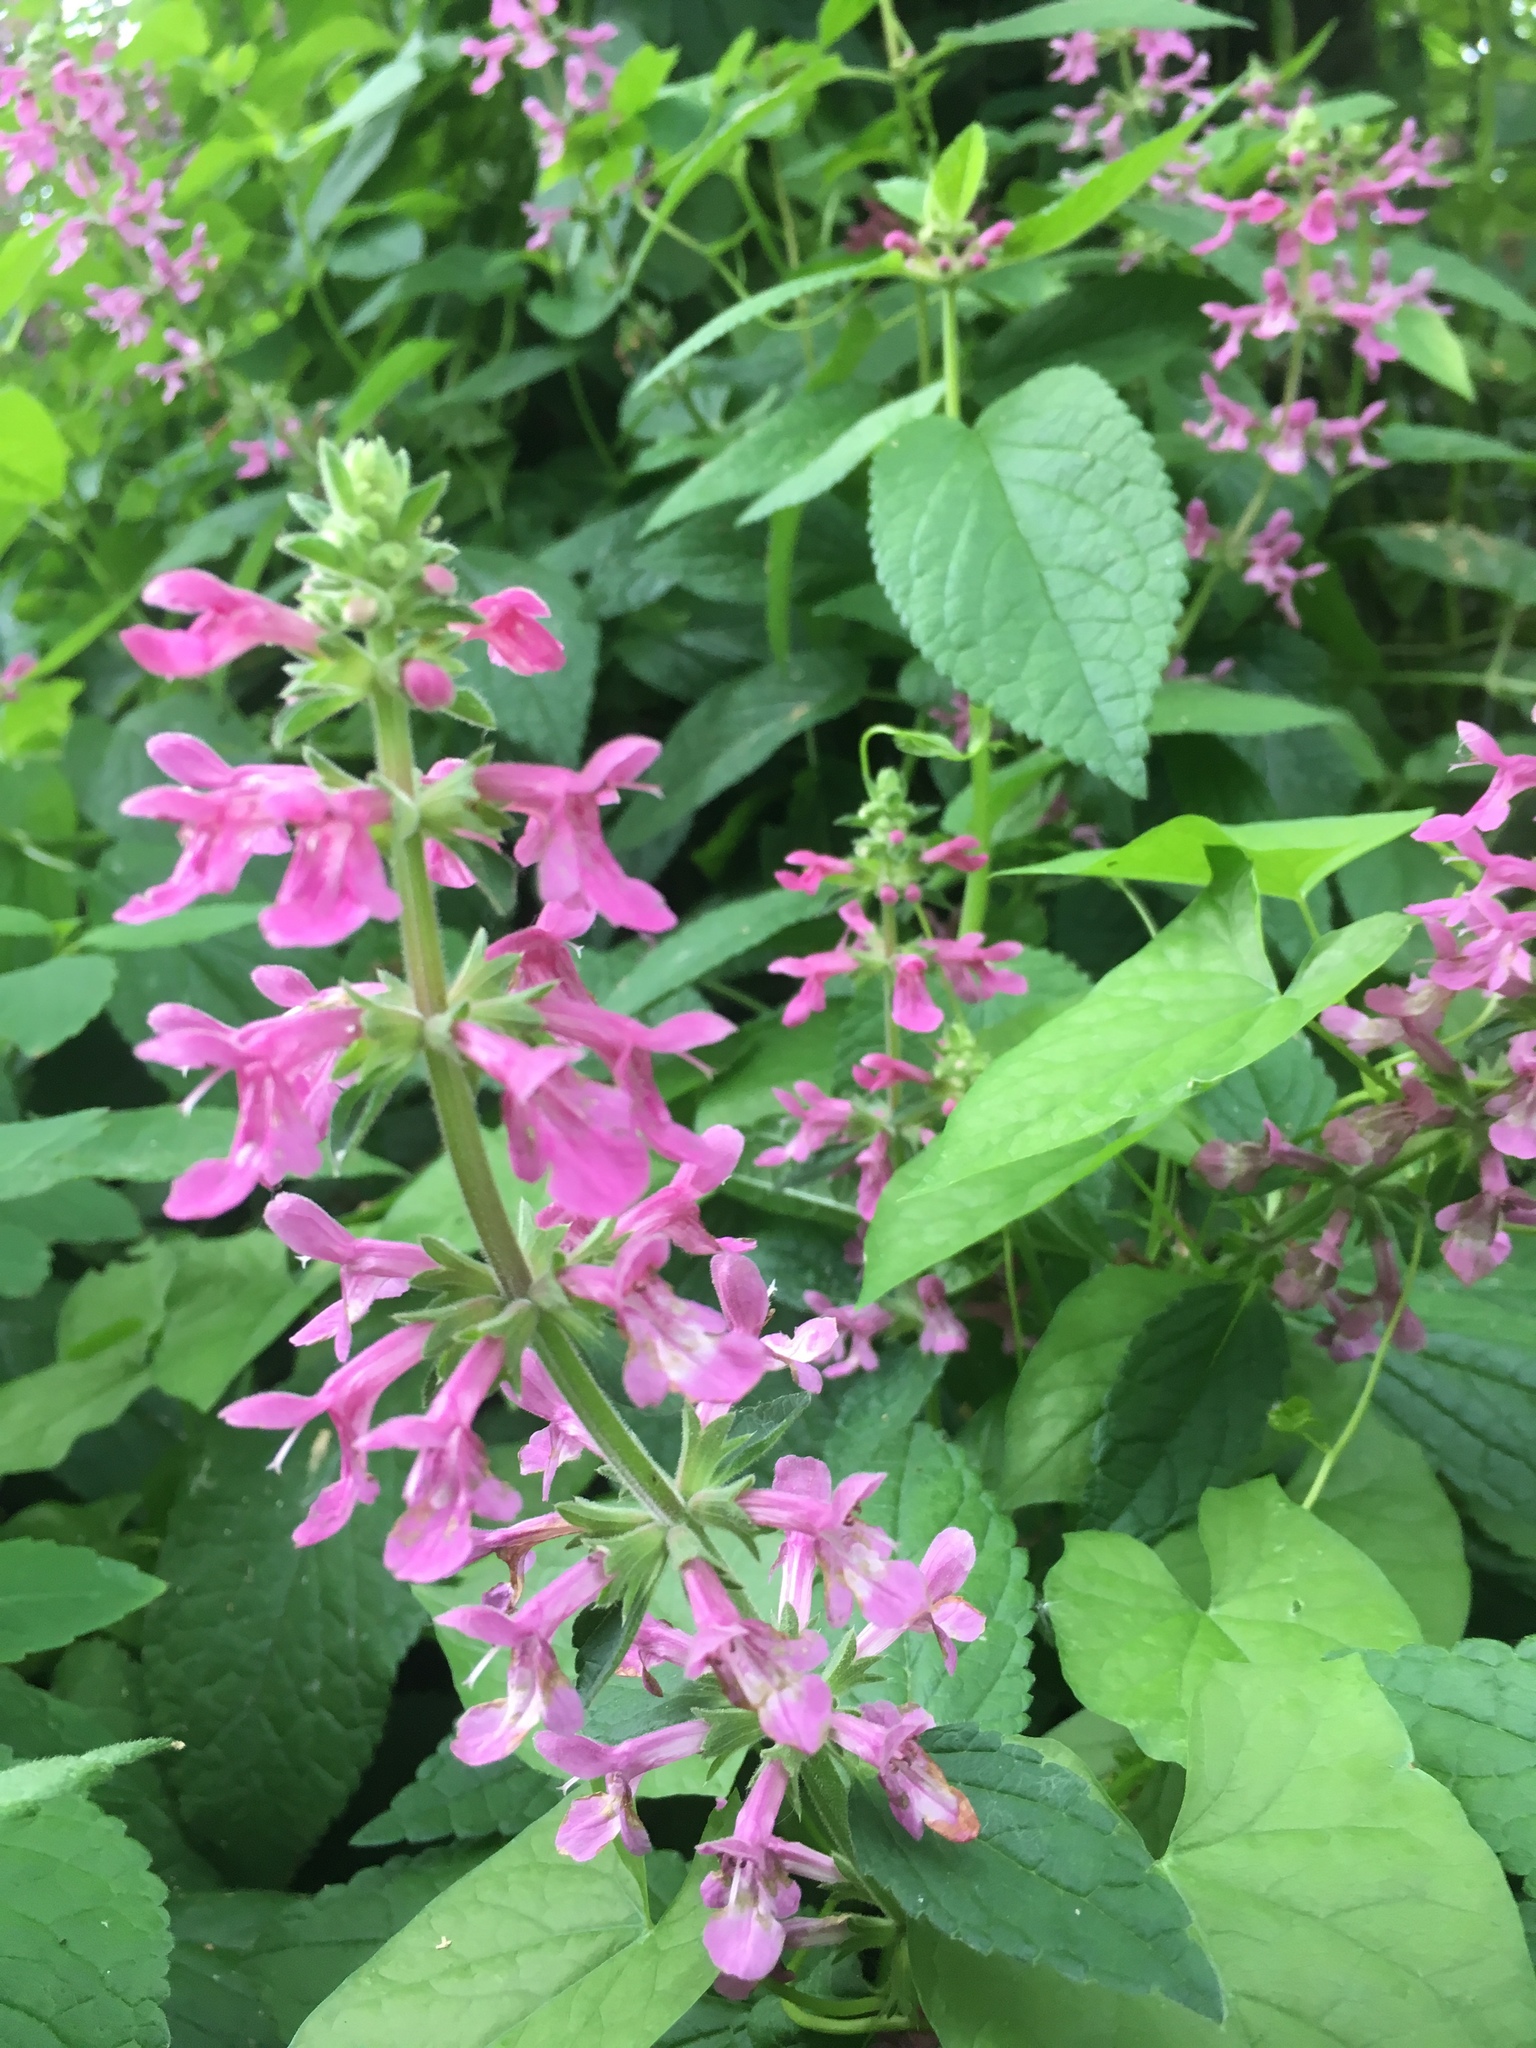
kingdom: Plantae
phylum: Tracheophyta
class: Magnoliopsida
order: Lamiales
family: Lamiaceae
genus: Stachys
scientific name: Stachys chamissonis
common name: Coastal hedge-nettle
